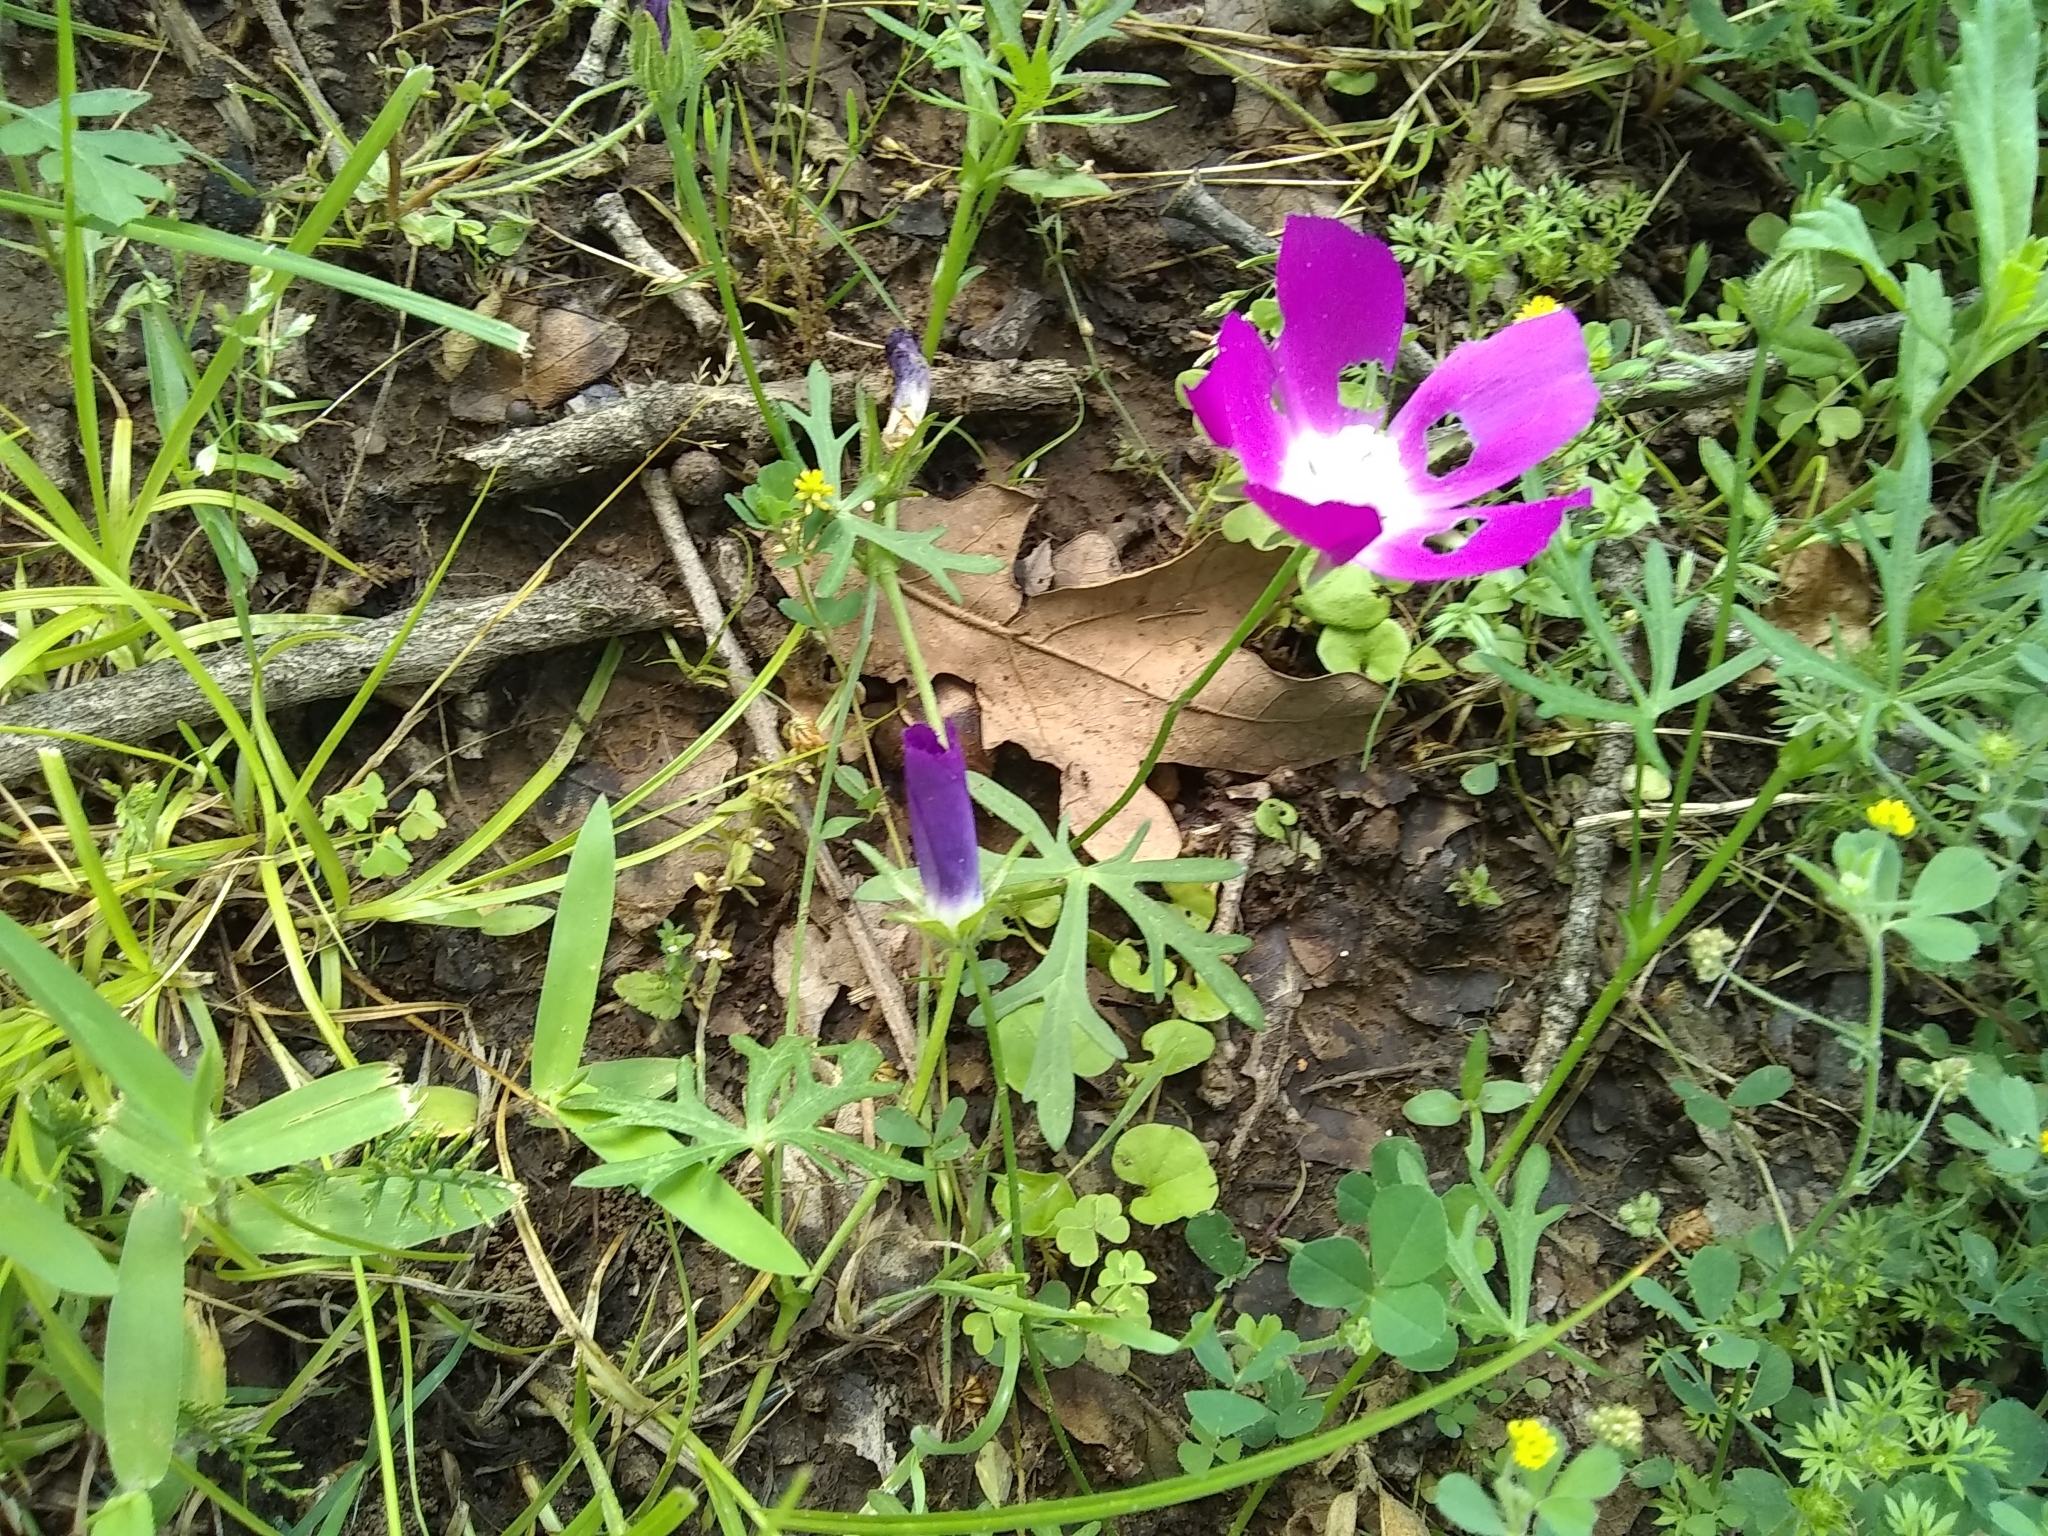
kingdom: Plantae
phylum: Tracheophyta
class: Magnoliopsida
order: Malvales
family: Malvaceae
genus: Callirhoe
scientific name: Callirhoe involucrata
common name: Purple poppy-mallow
